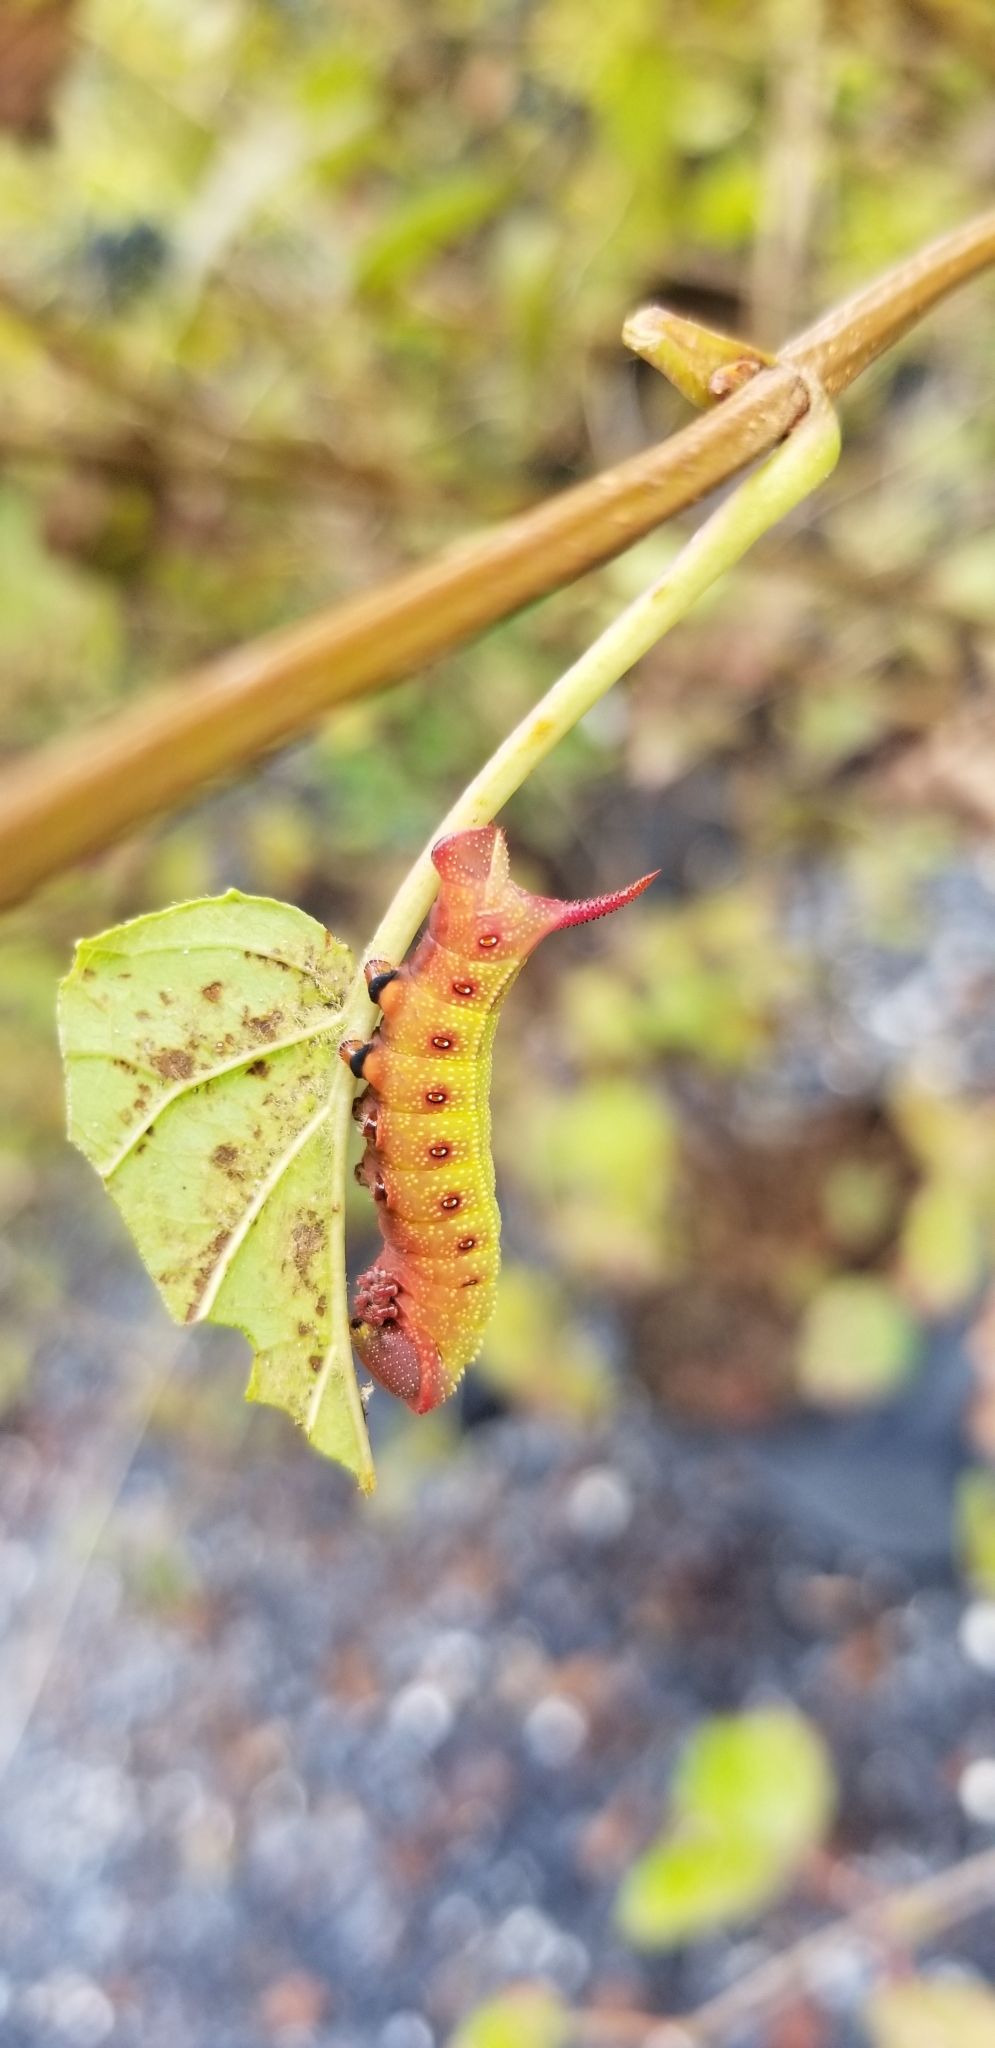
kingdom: Animalia
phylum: Arthropoda
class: Insecta
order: Lepidoptera
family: Sphingidae
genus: Hemaris
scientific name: Hemaris thysbe
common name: Common clear-wing
